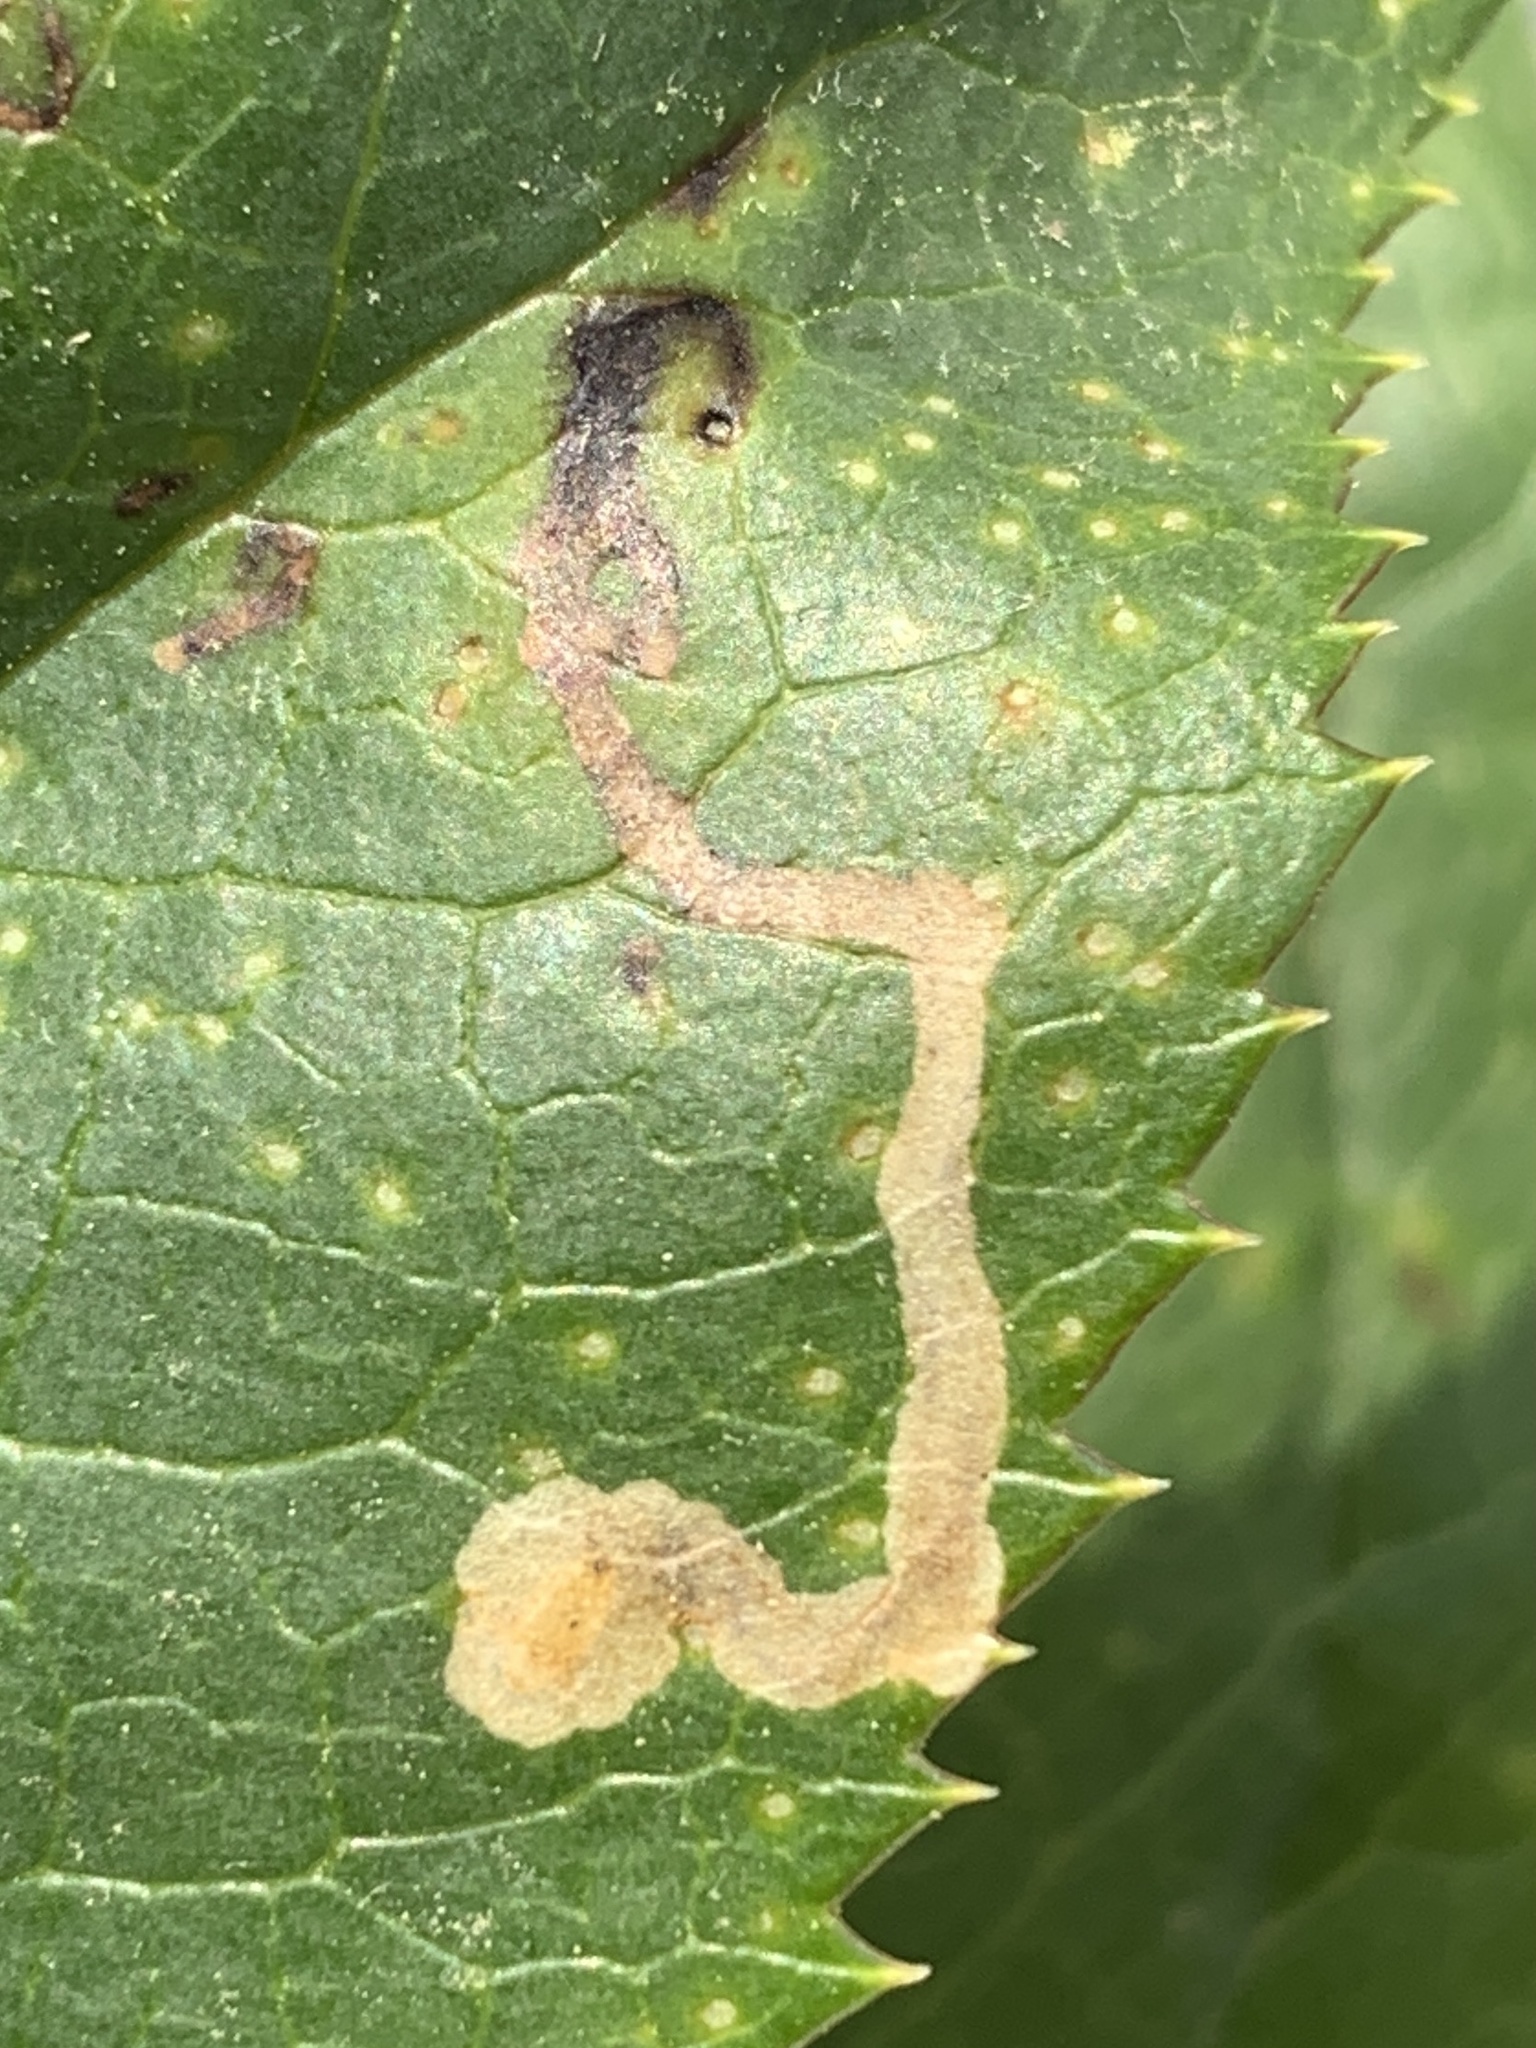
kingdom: Animalia
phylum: Arthropoda
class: Insecta
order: Diptera
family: Agromyzidae
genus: Phytomyza
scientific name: Phytomyza hellebori
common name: Fly
